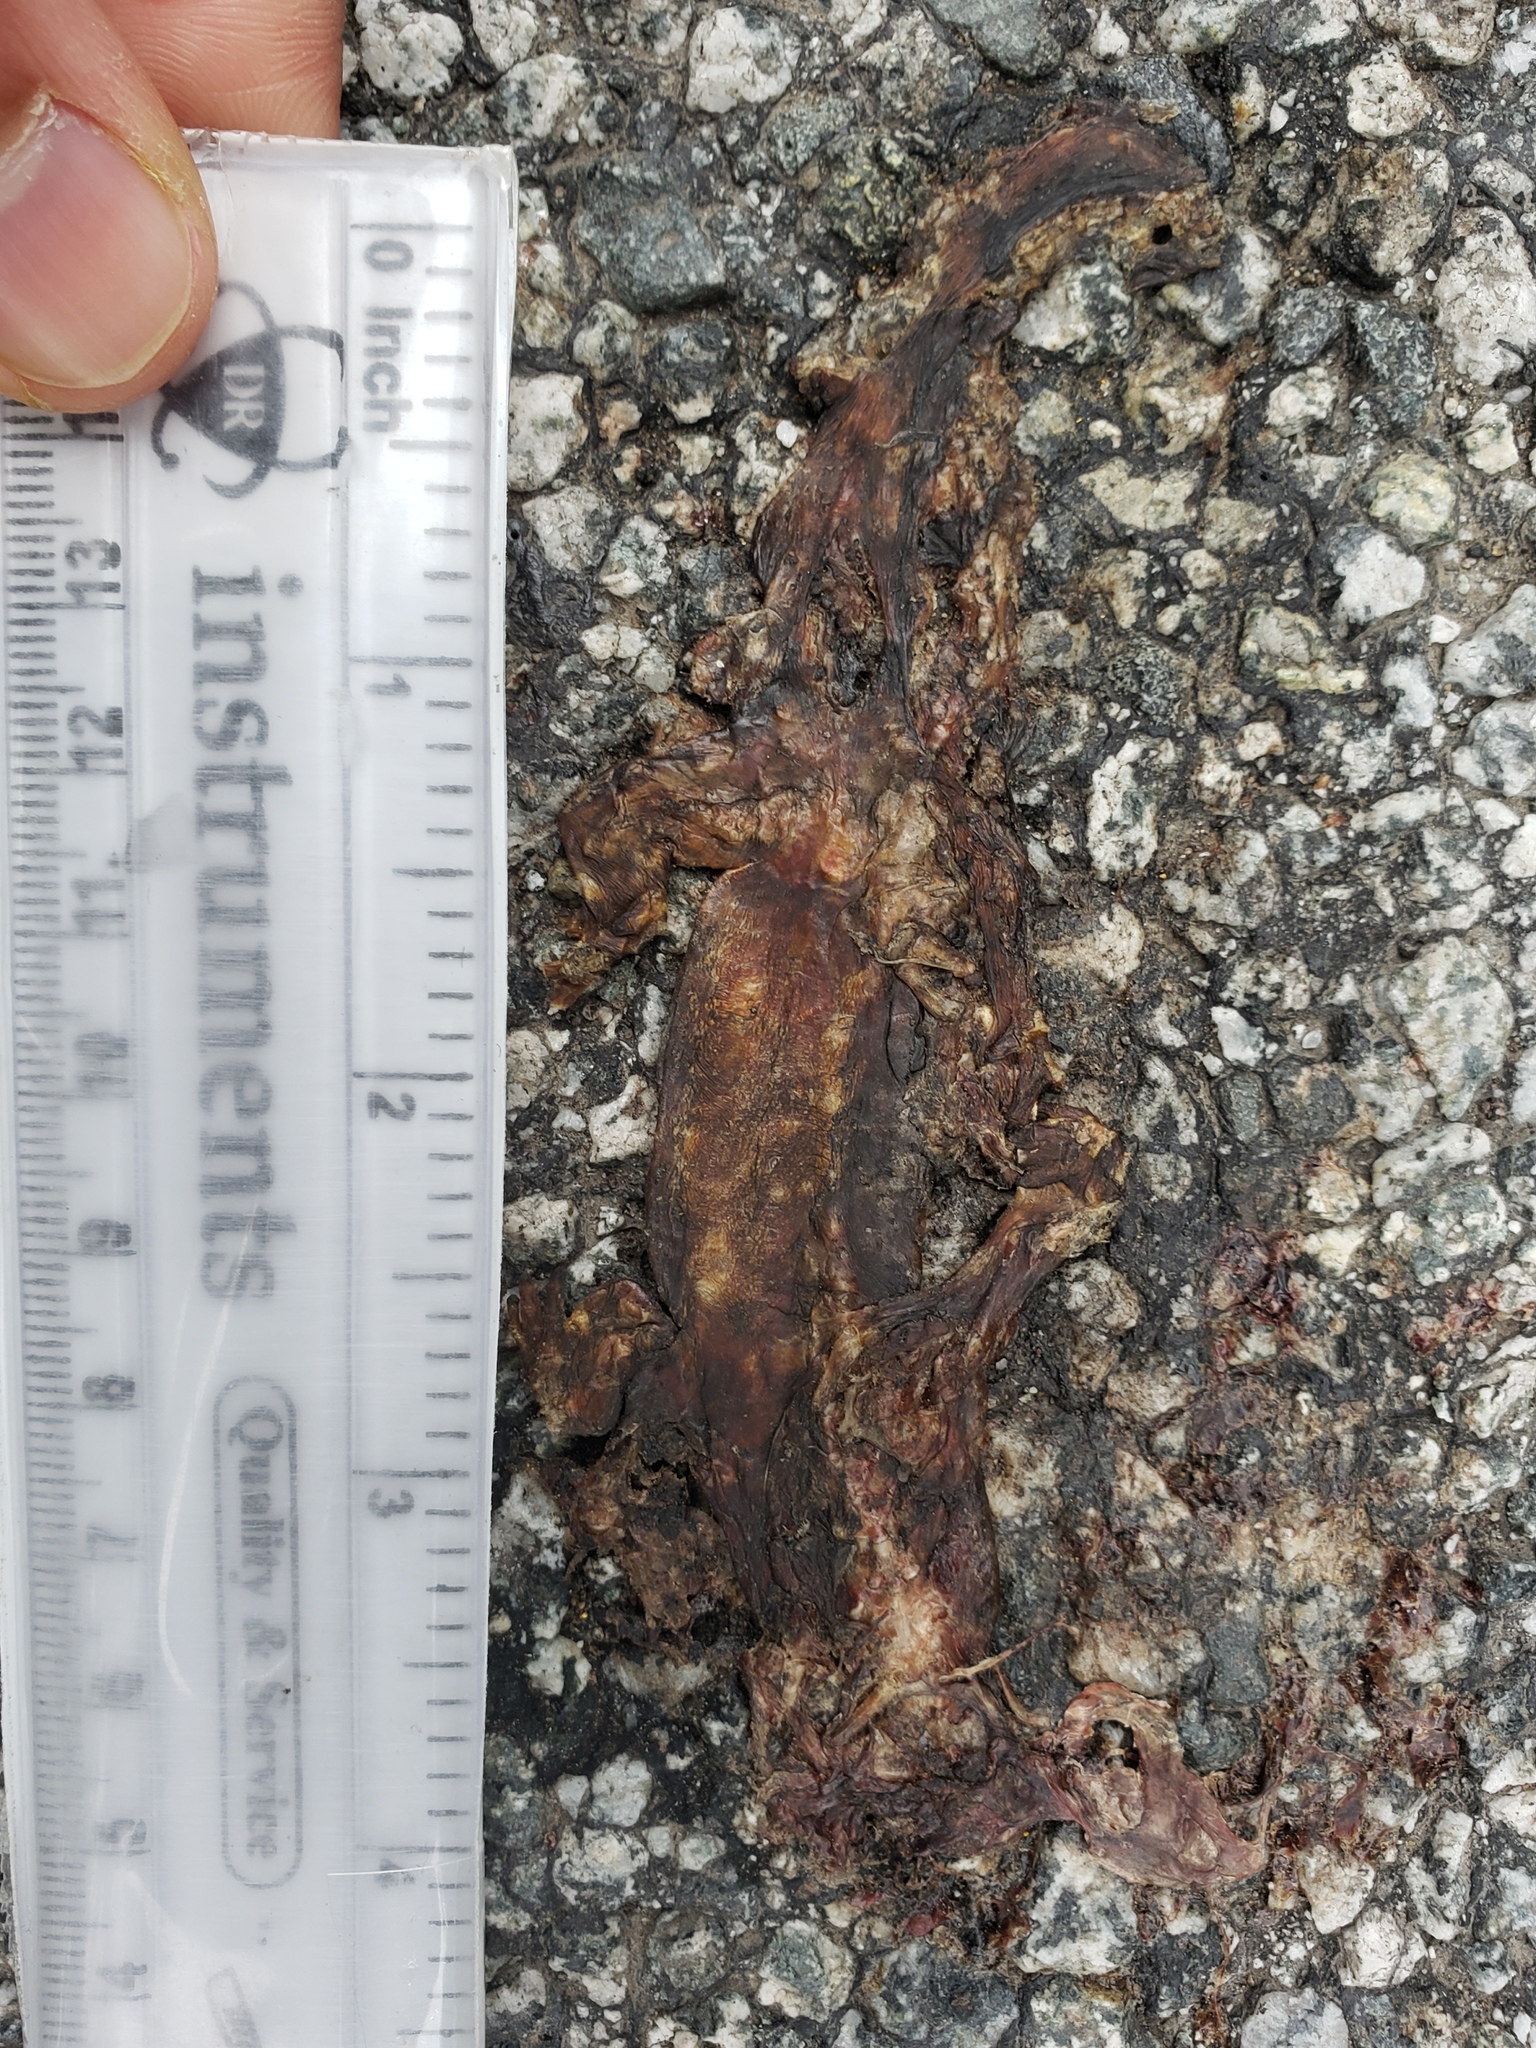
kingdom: Animalia
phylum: Chordata
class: Amphibia
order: Caudata
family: Salamandridae
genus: Taricha
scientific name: Taricha
